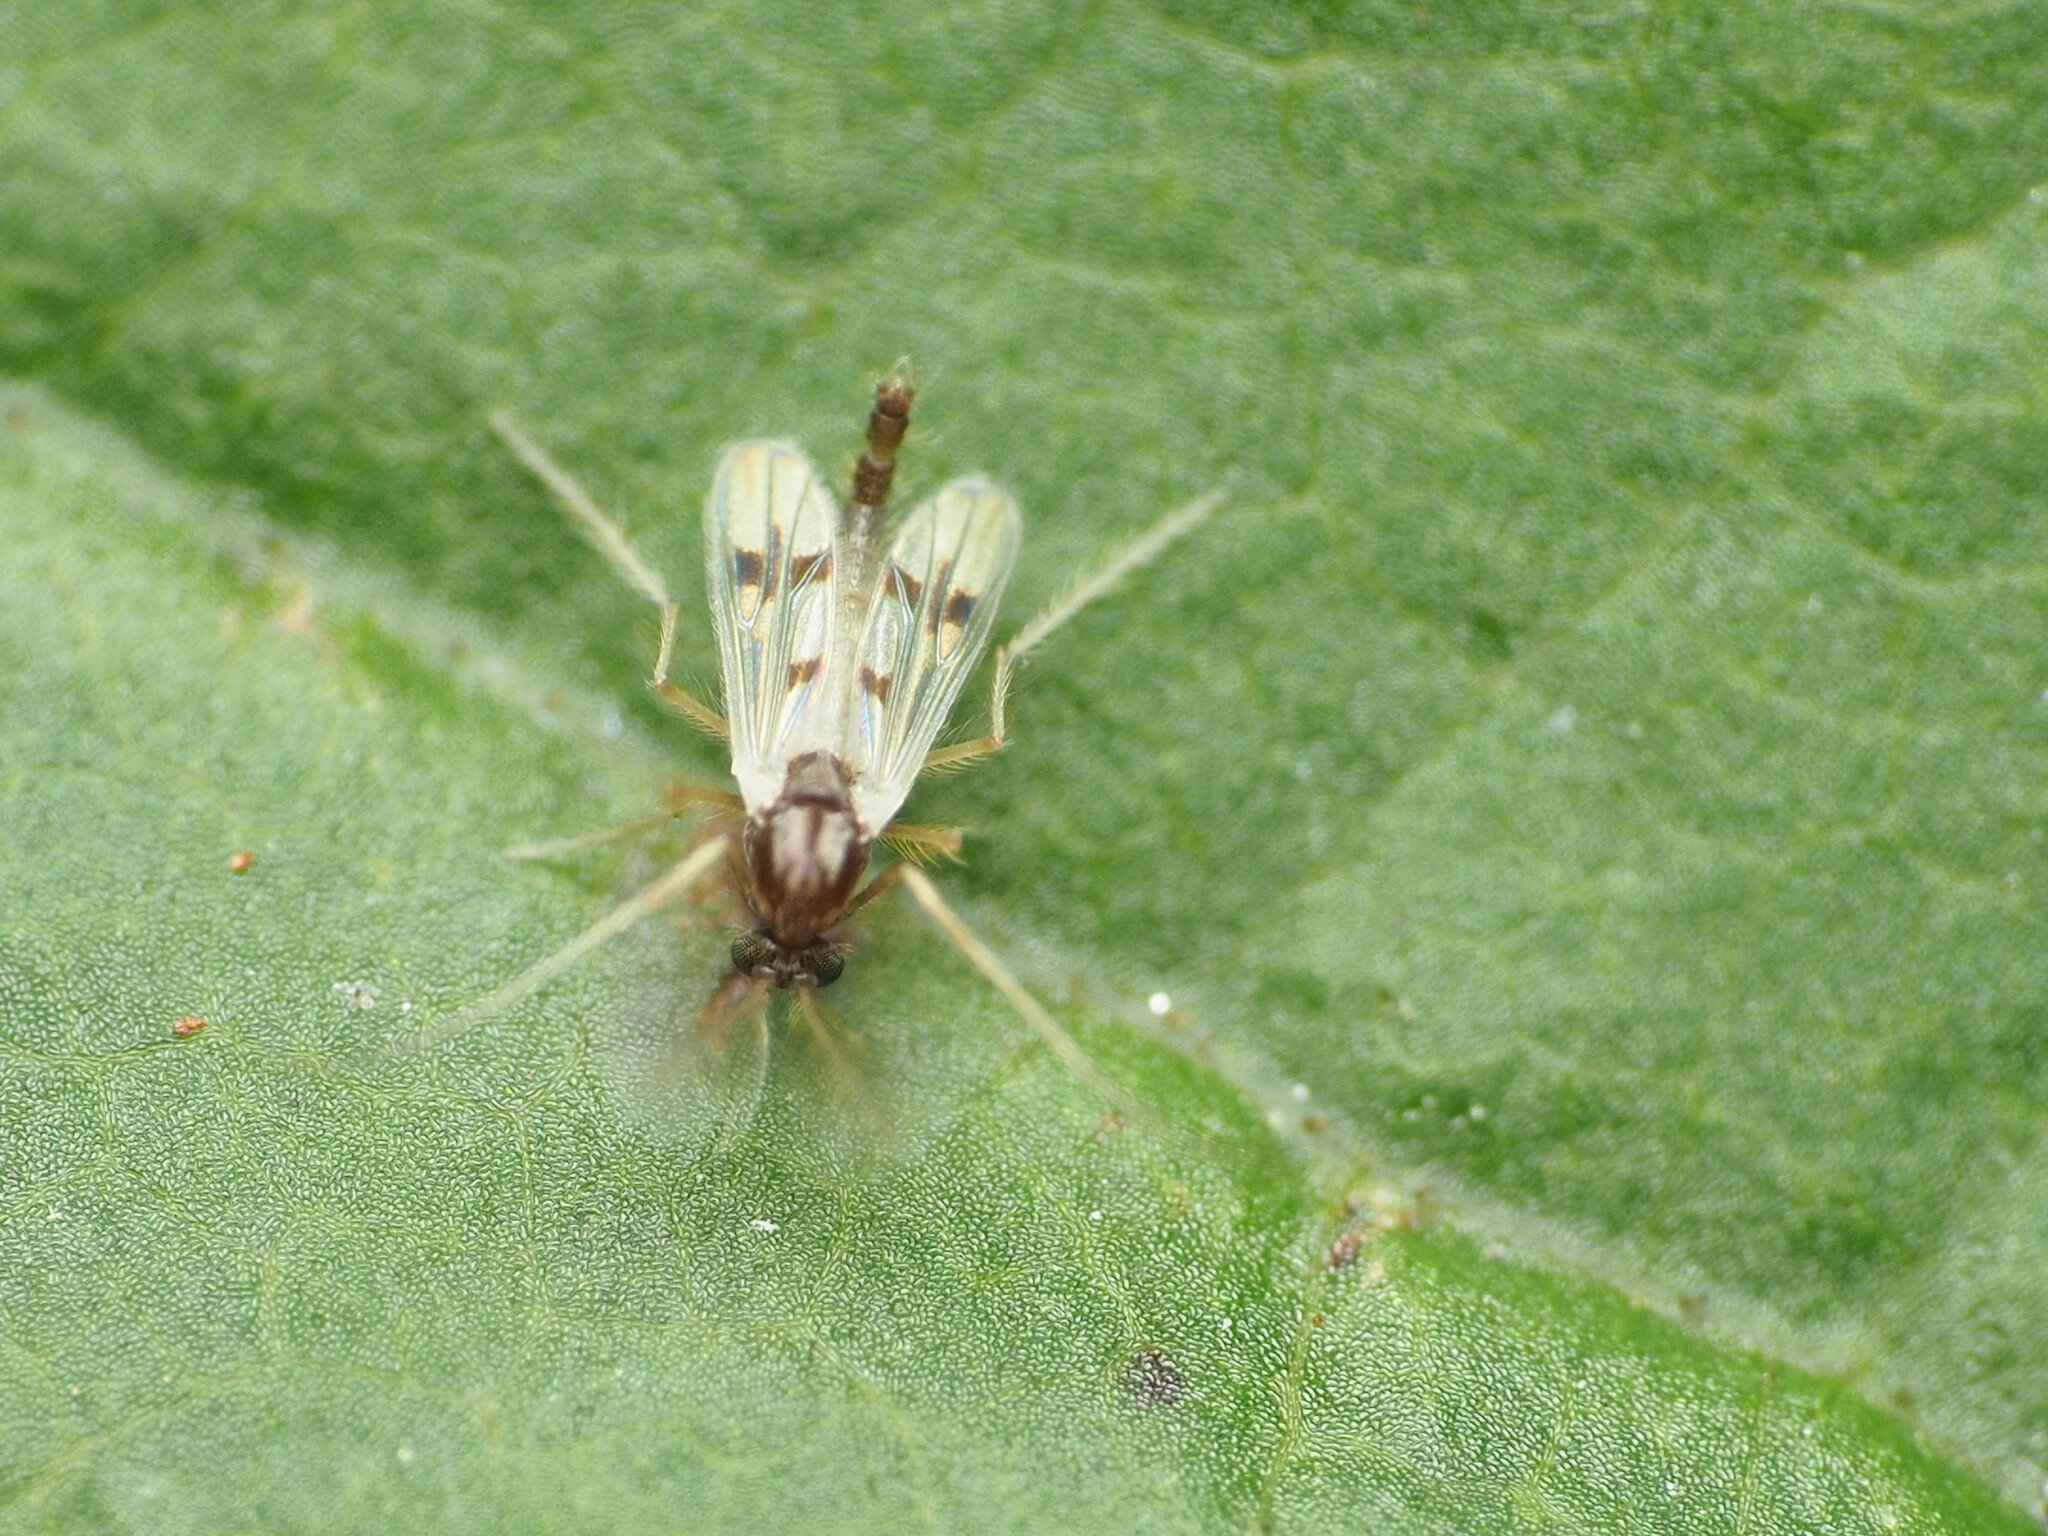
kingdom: Animalia
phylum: Arthropoda
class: Insecta
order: Diptera
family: Chironomidae
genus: Polypedilum
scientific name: Polypedilum scalaenum
